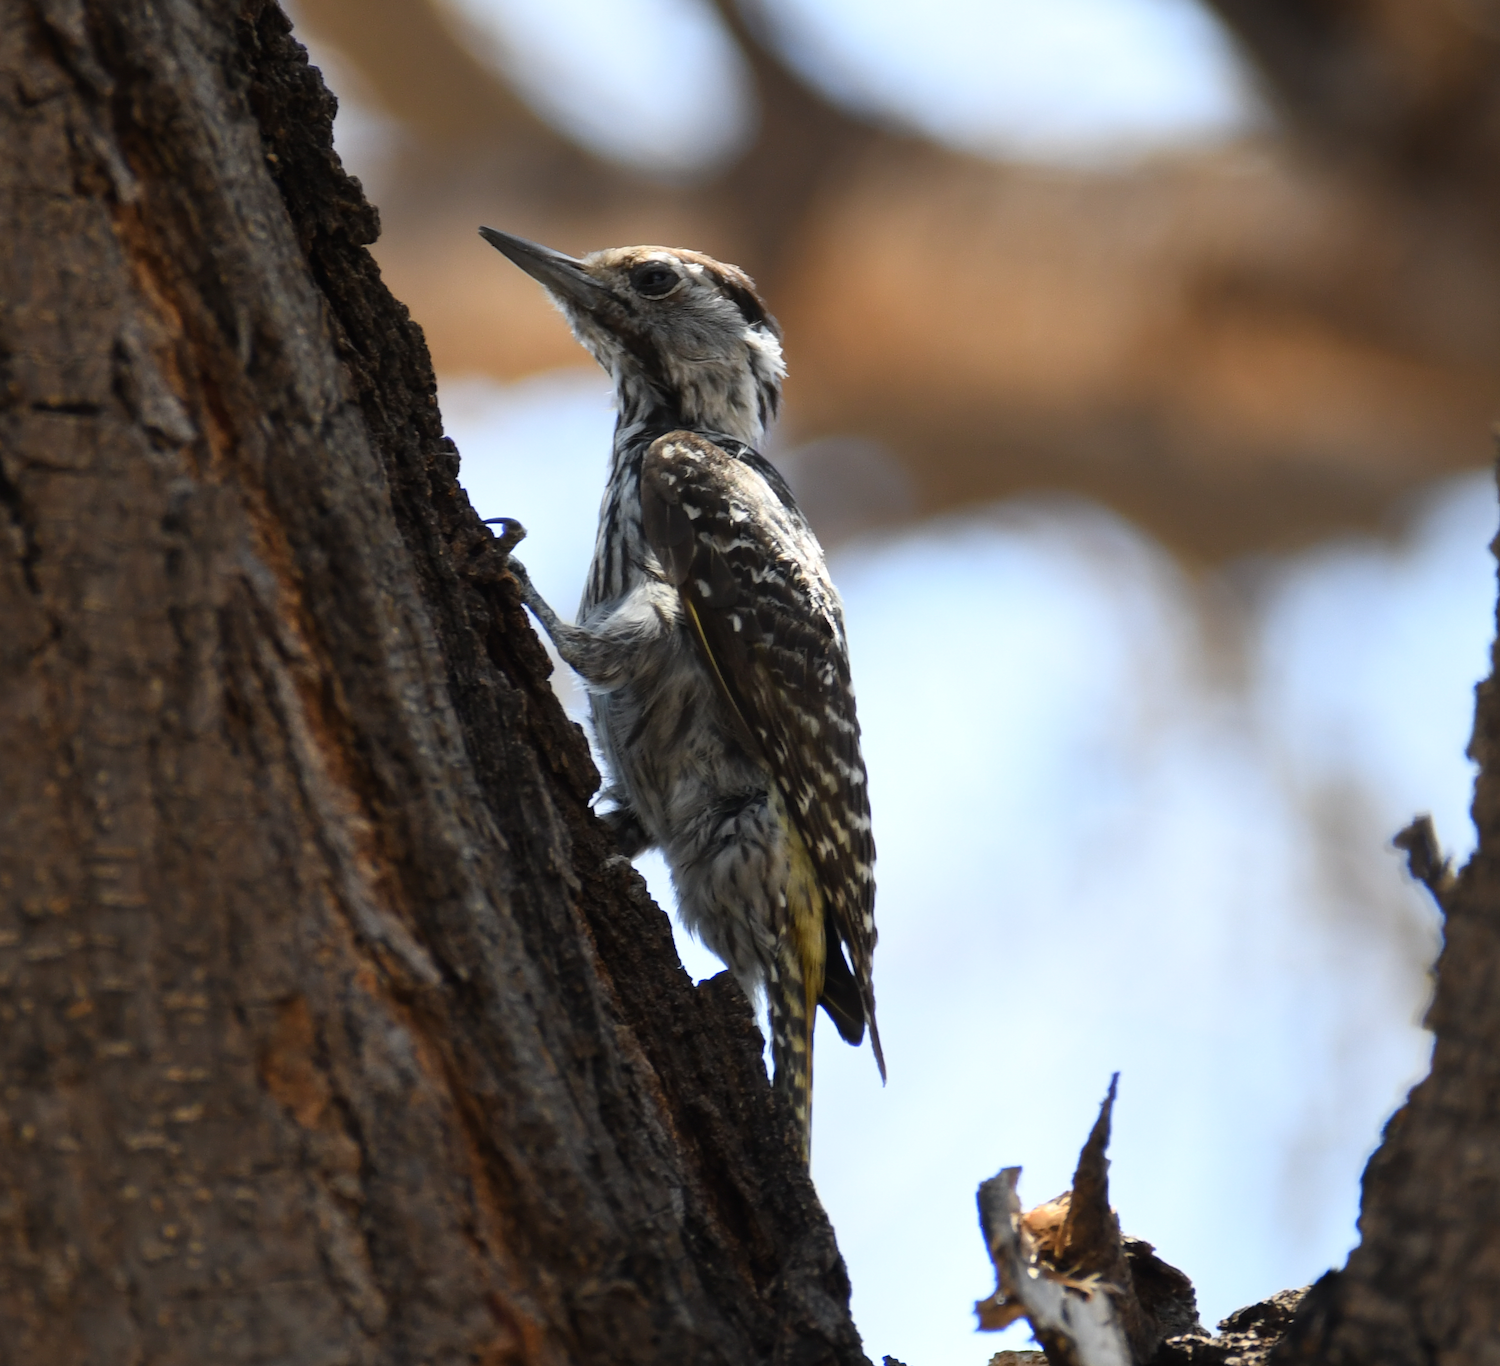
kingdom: Animalia
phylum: Chordata
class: Aves
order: Piciformes
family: Picidae
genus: Dendropicos
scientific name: Dendropicos fuscescens
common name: Cardinal woodpecker
